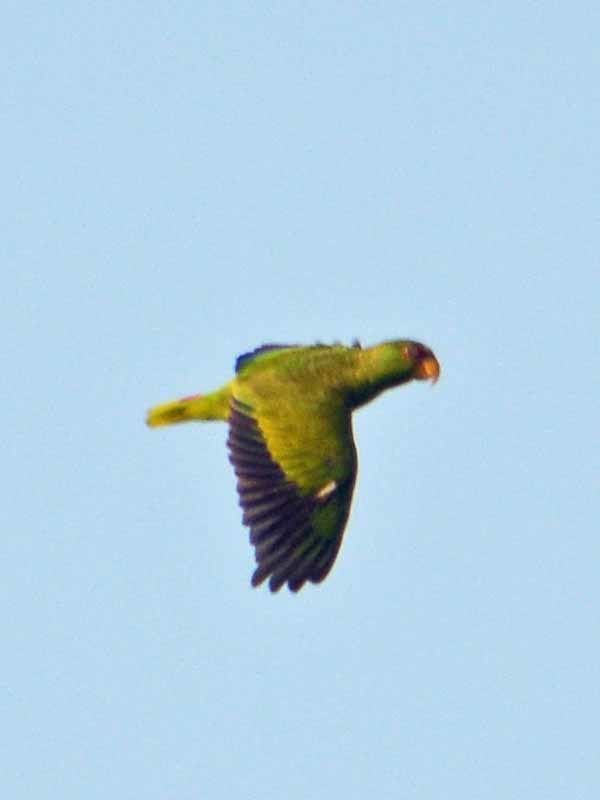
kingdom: Animalia
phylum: Chordata
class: Aves
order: Psittaciformes
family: Psittacidae
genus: Amazona
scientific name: Amazona albifrons
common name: White-fronted amazon
